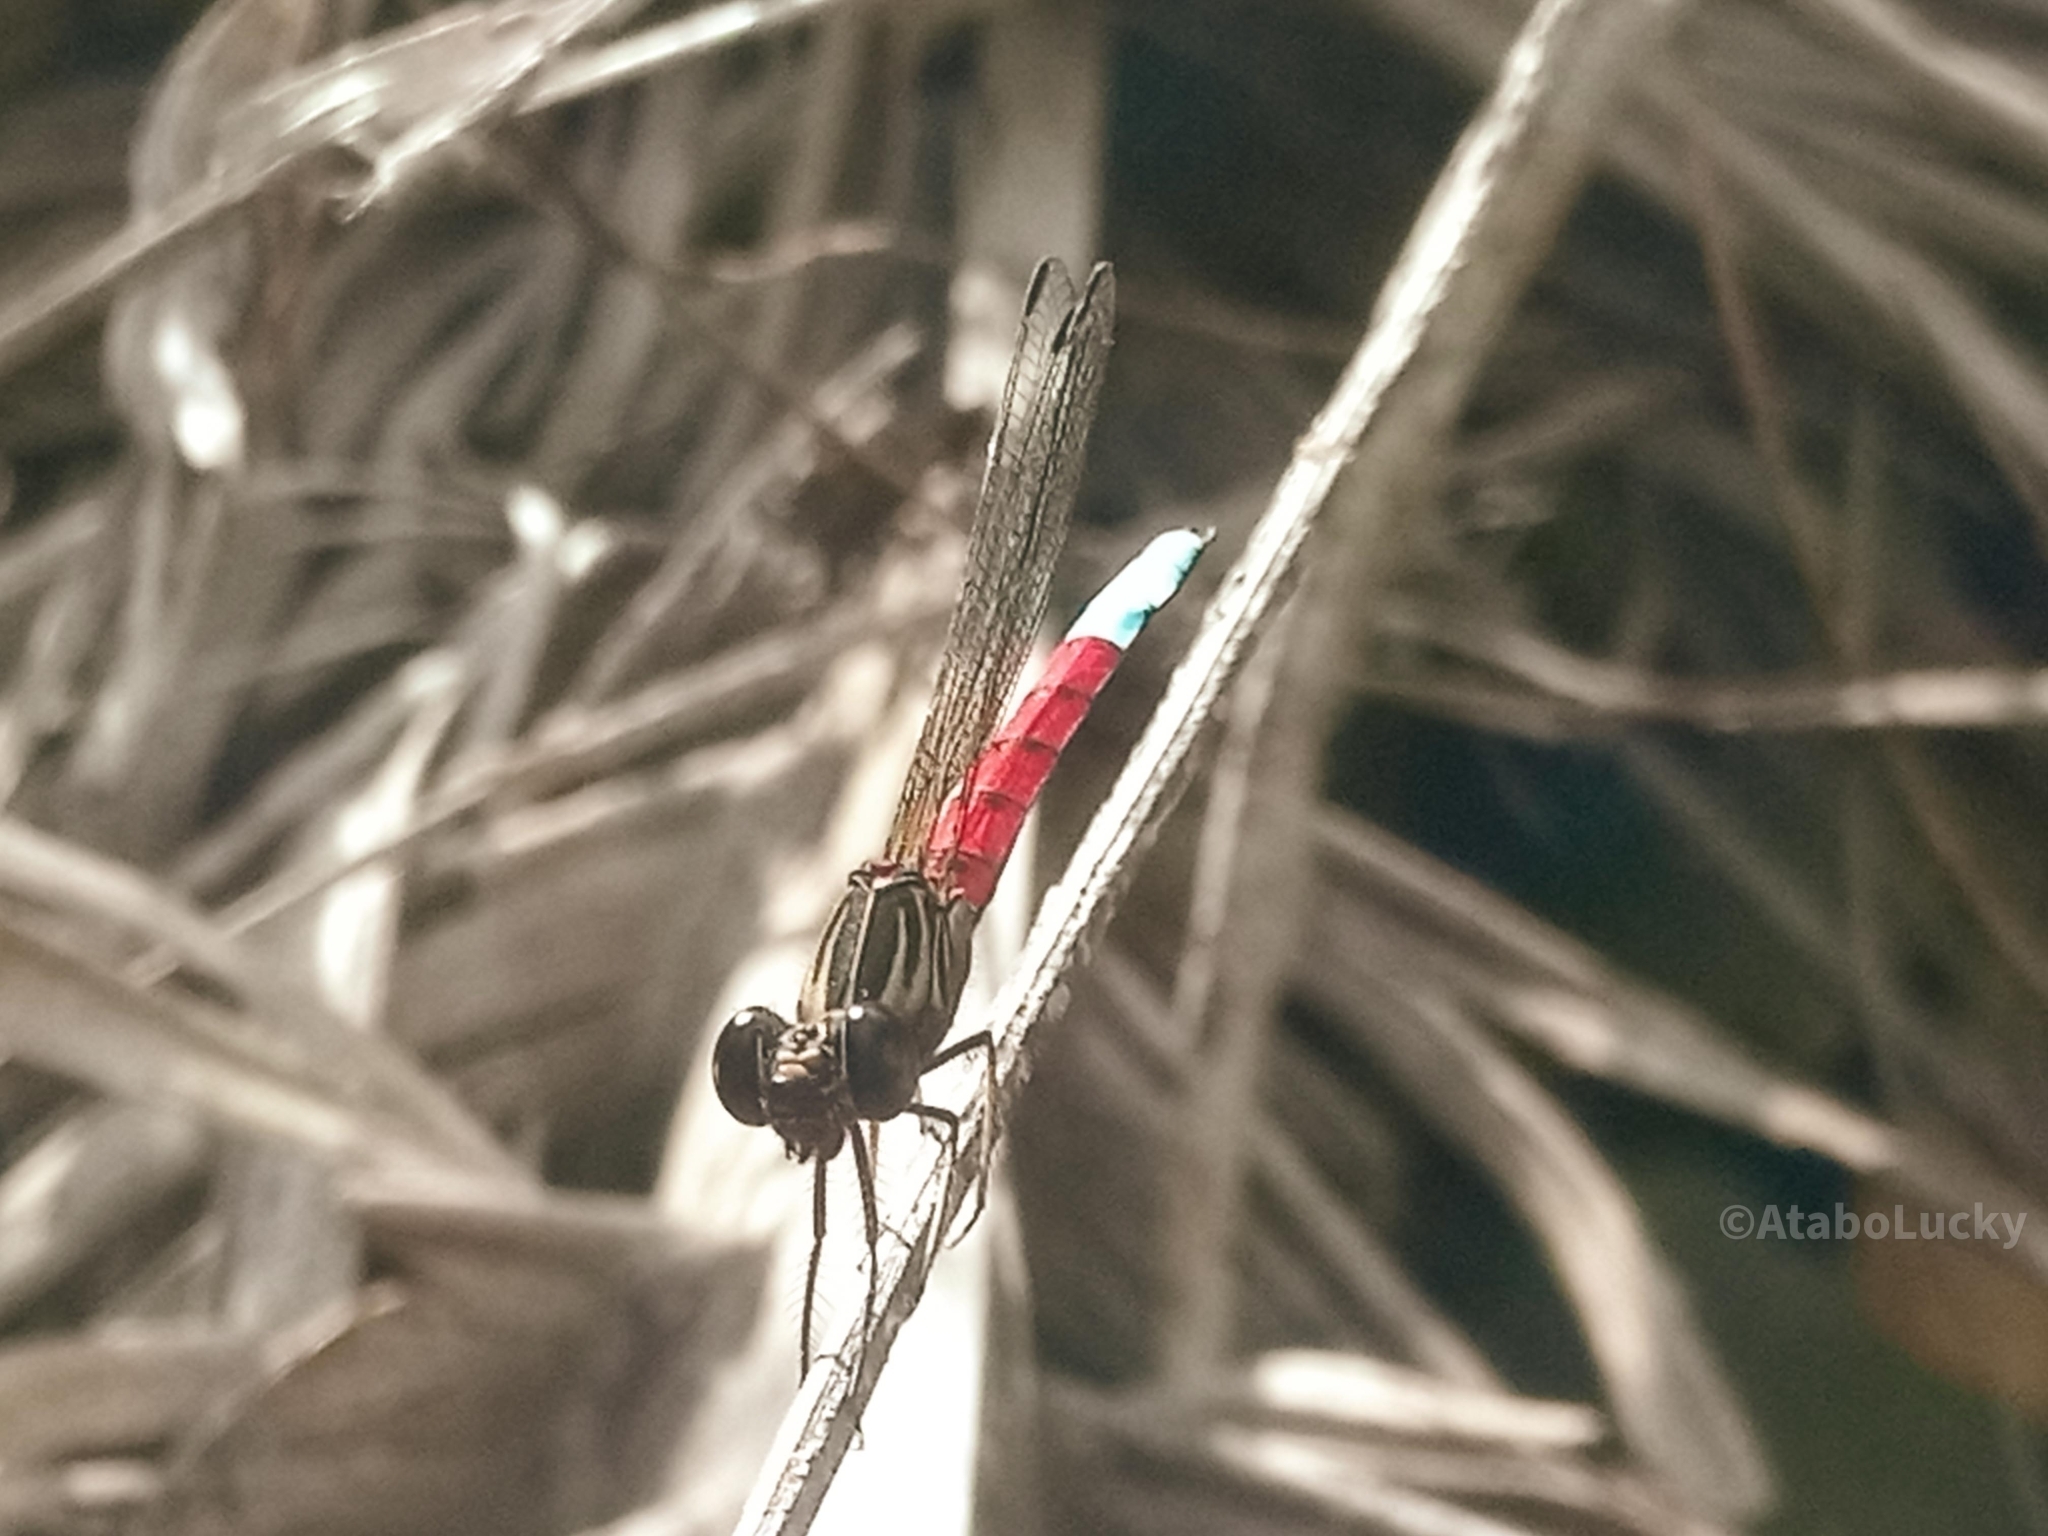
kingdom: Animalia
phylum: Arthropoda
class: Insecta
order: Odonata
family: Chlorocyphidae
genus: Chlorocypha
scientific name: Chlorocypha curta
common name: Blue-tipped jewel
